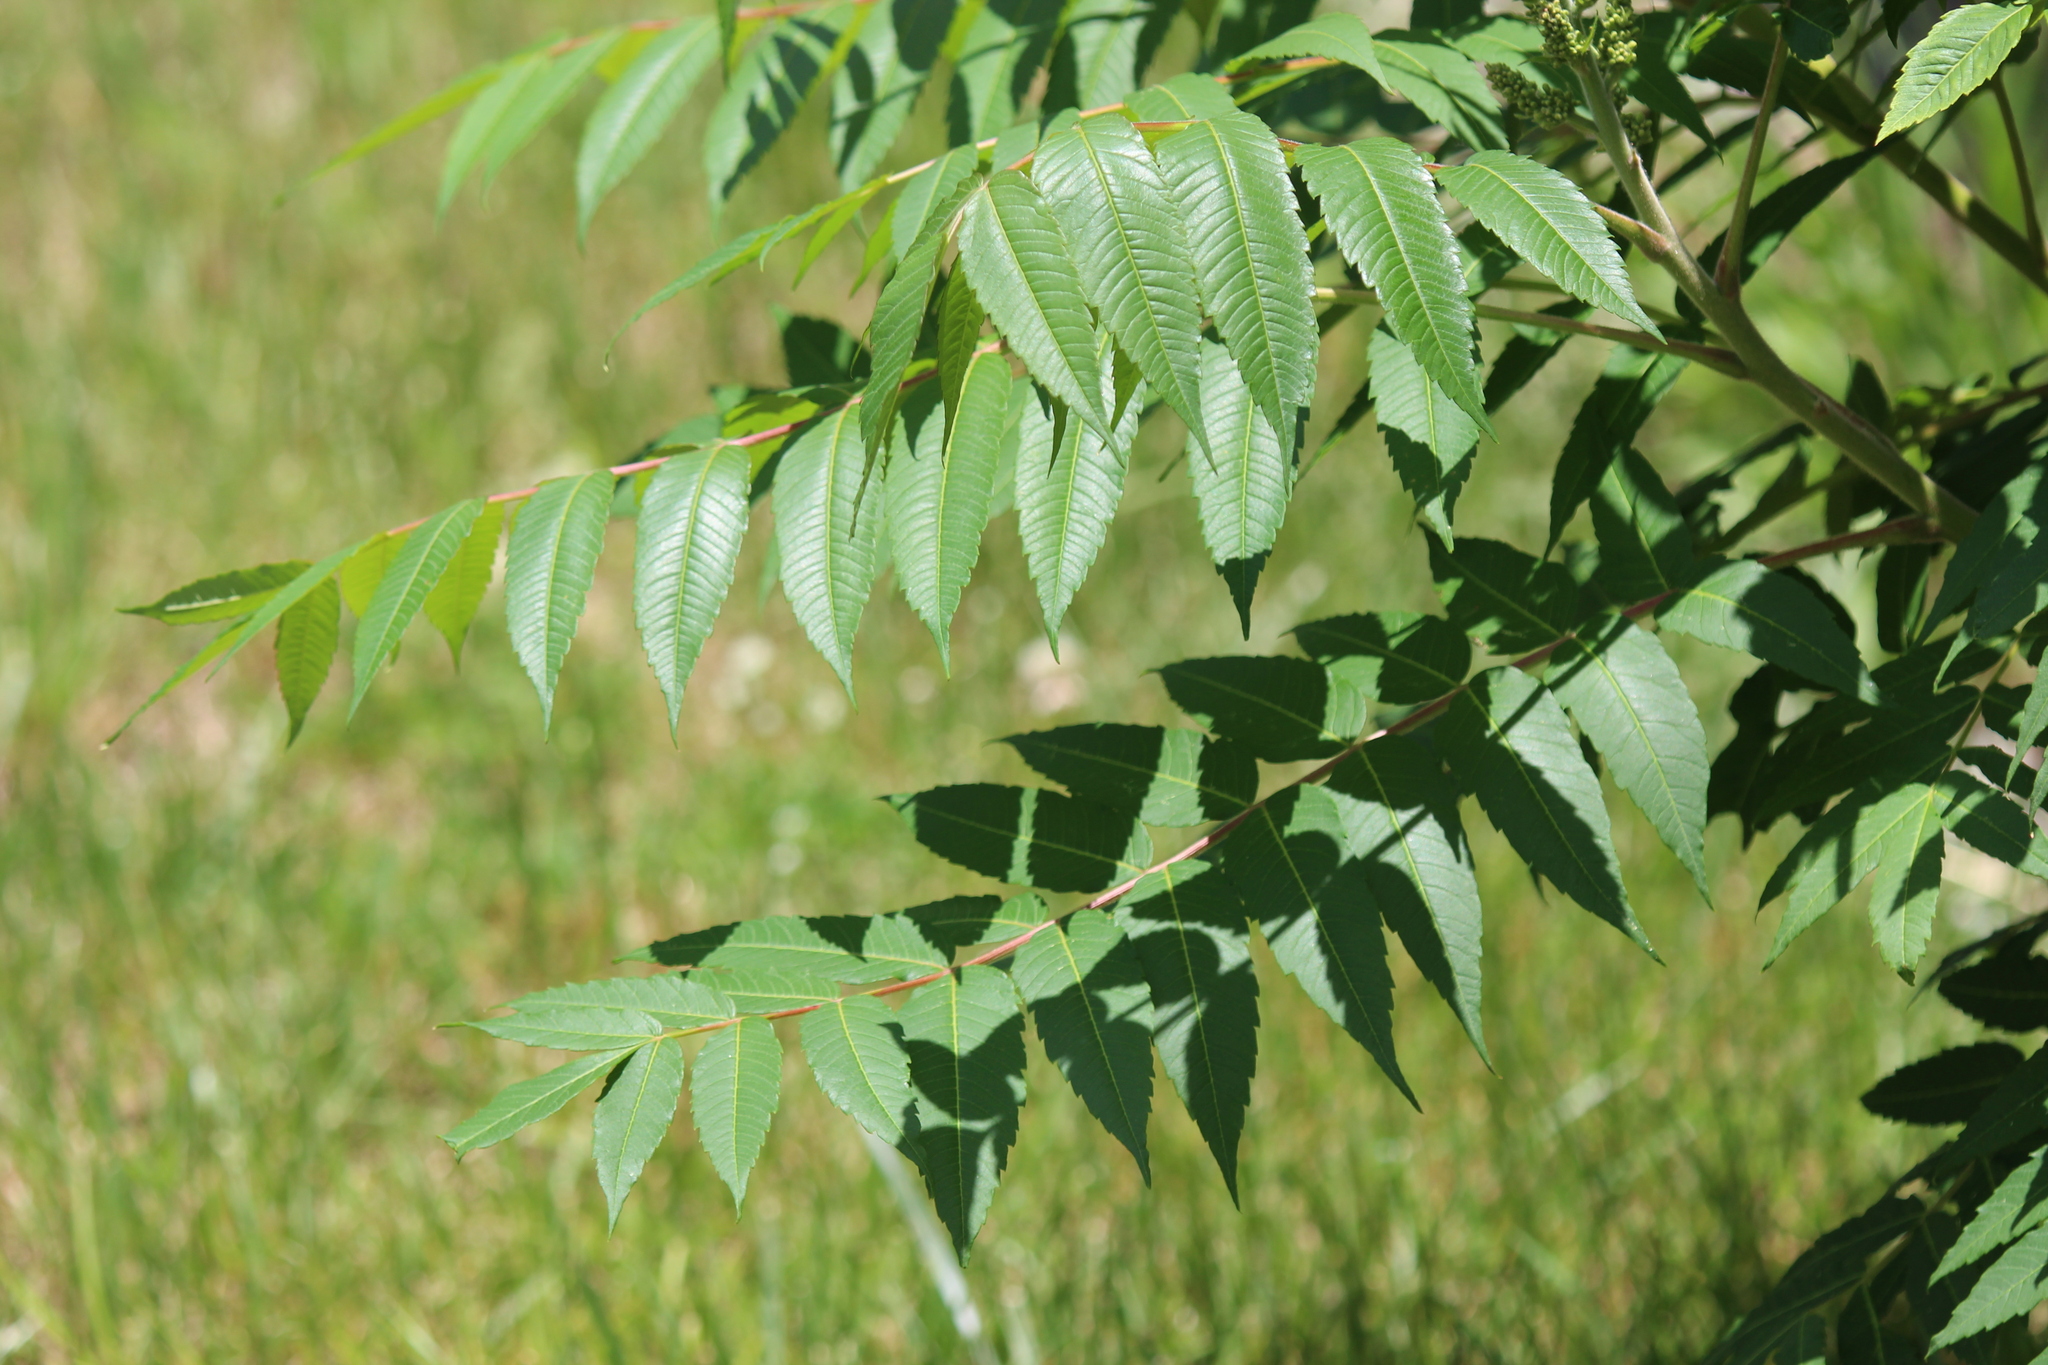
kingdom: Plantae
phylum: Tracheophyta
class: Magnoliopsida
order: Sapindales
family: Anacardiaceae
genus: Rhus
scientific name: Rhus glabra
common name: Scarlet sumac
